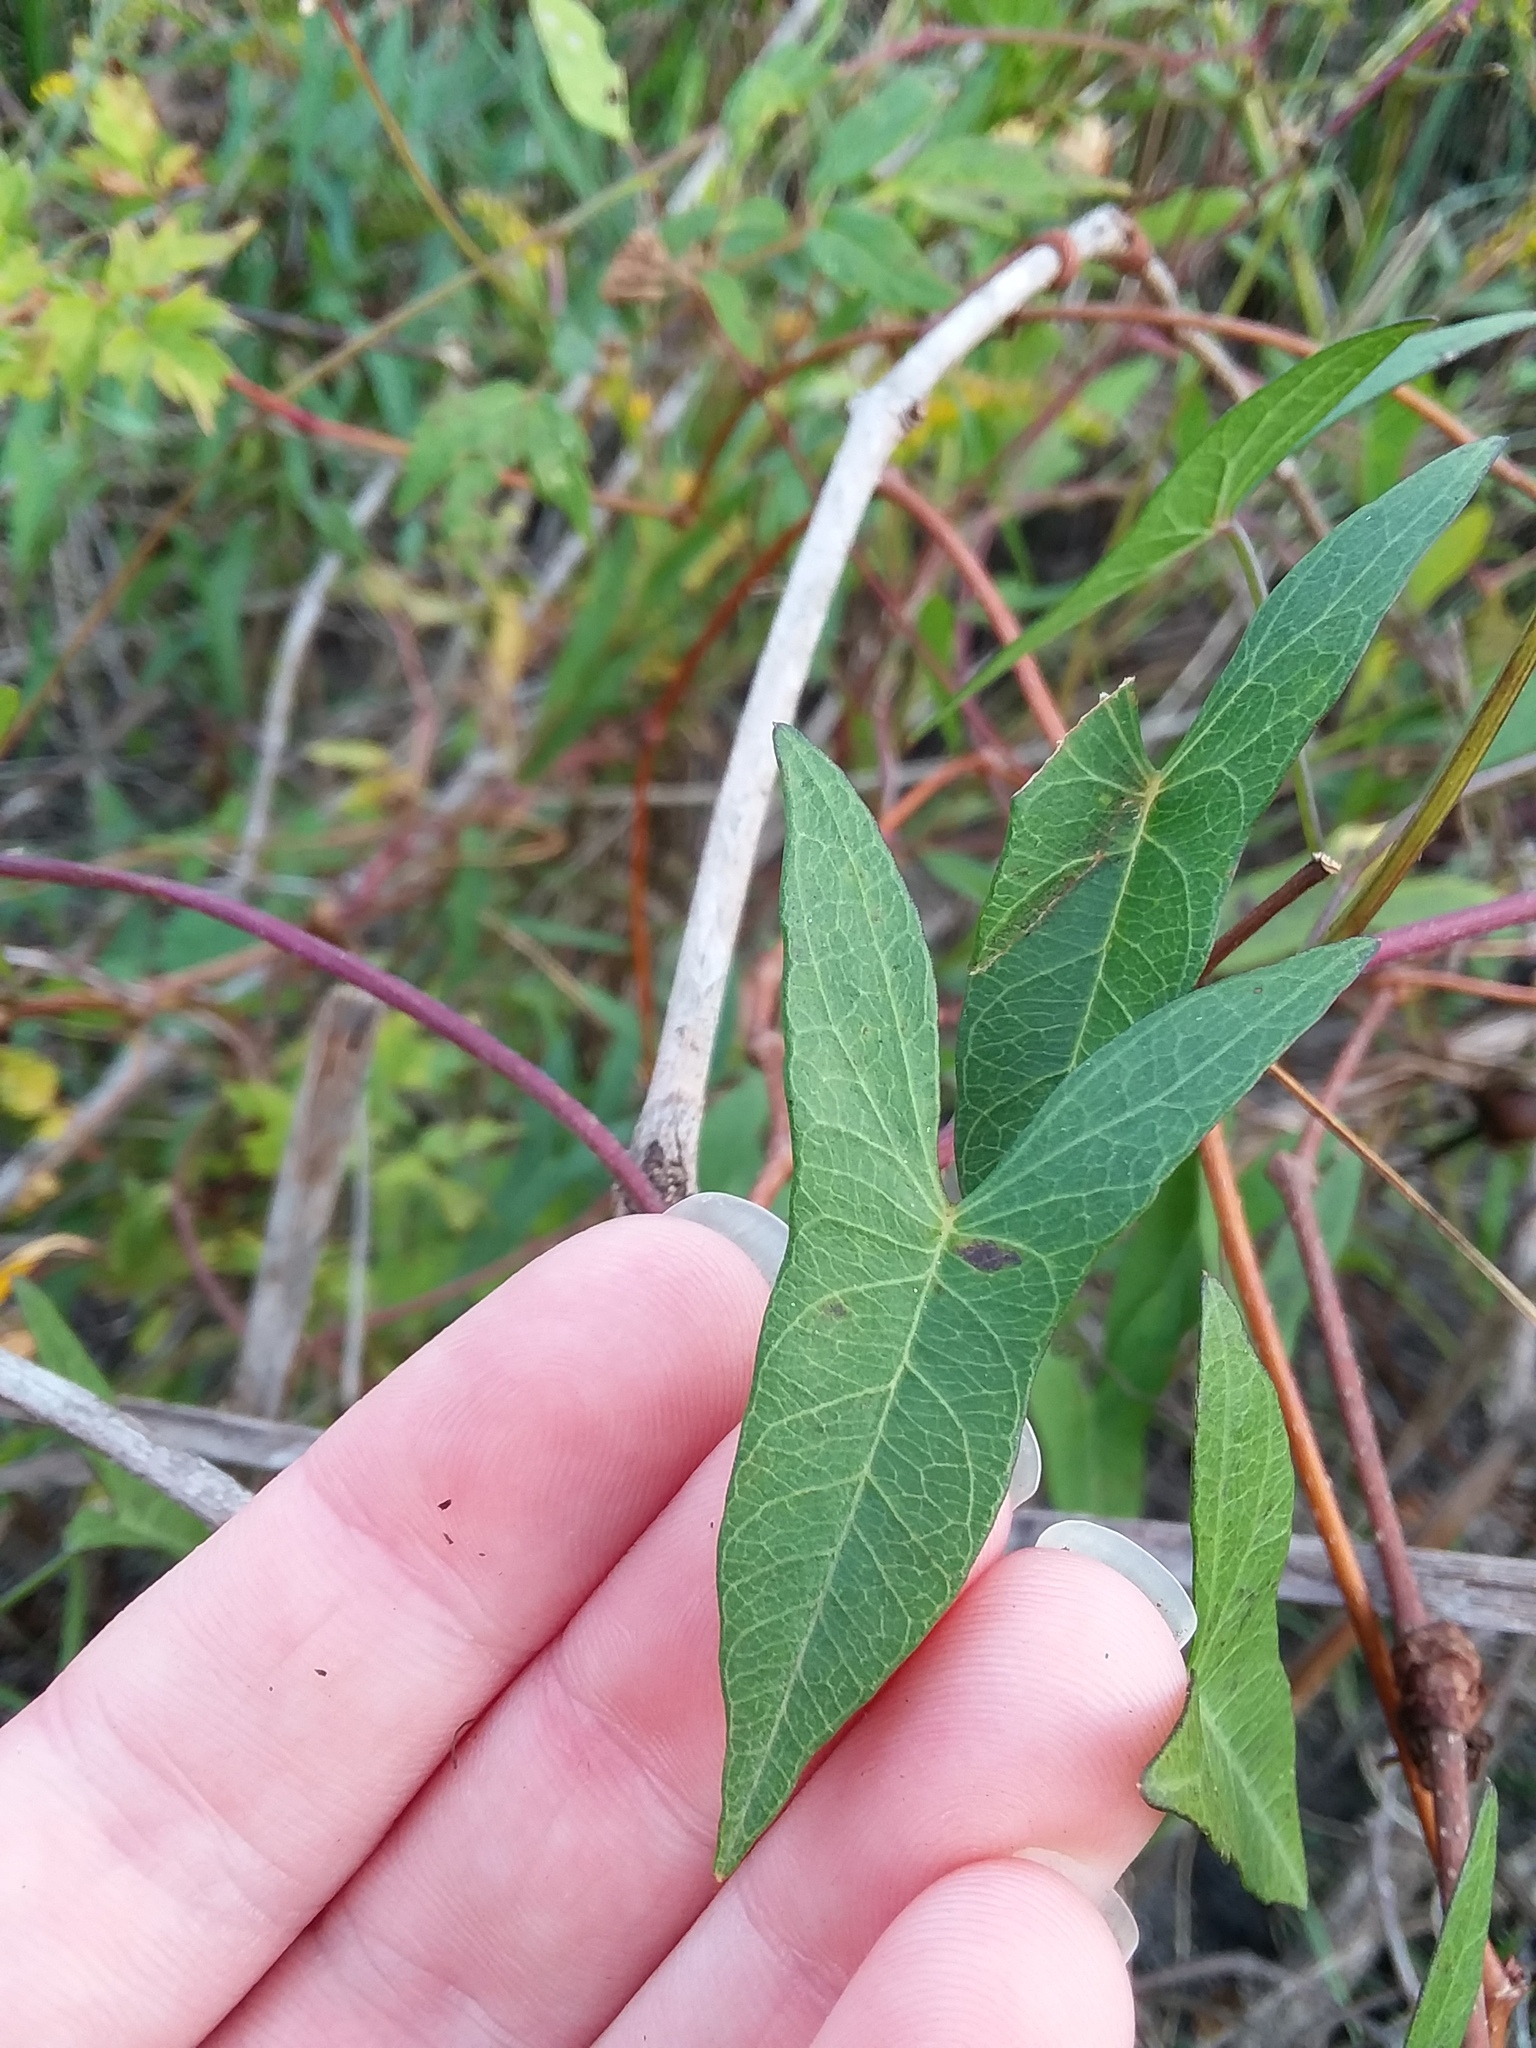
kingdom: Plantae
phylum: Tracheophyta
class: Magnoliopsida
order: Solanales
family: Convolvulaceae
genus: Ipomoea
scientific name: Ipomoea sagittata
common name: Saltmarsh morning glory
